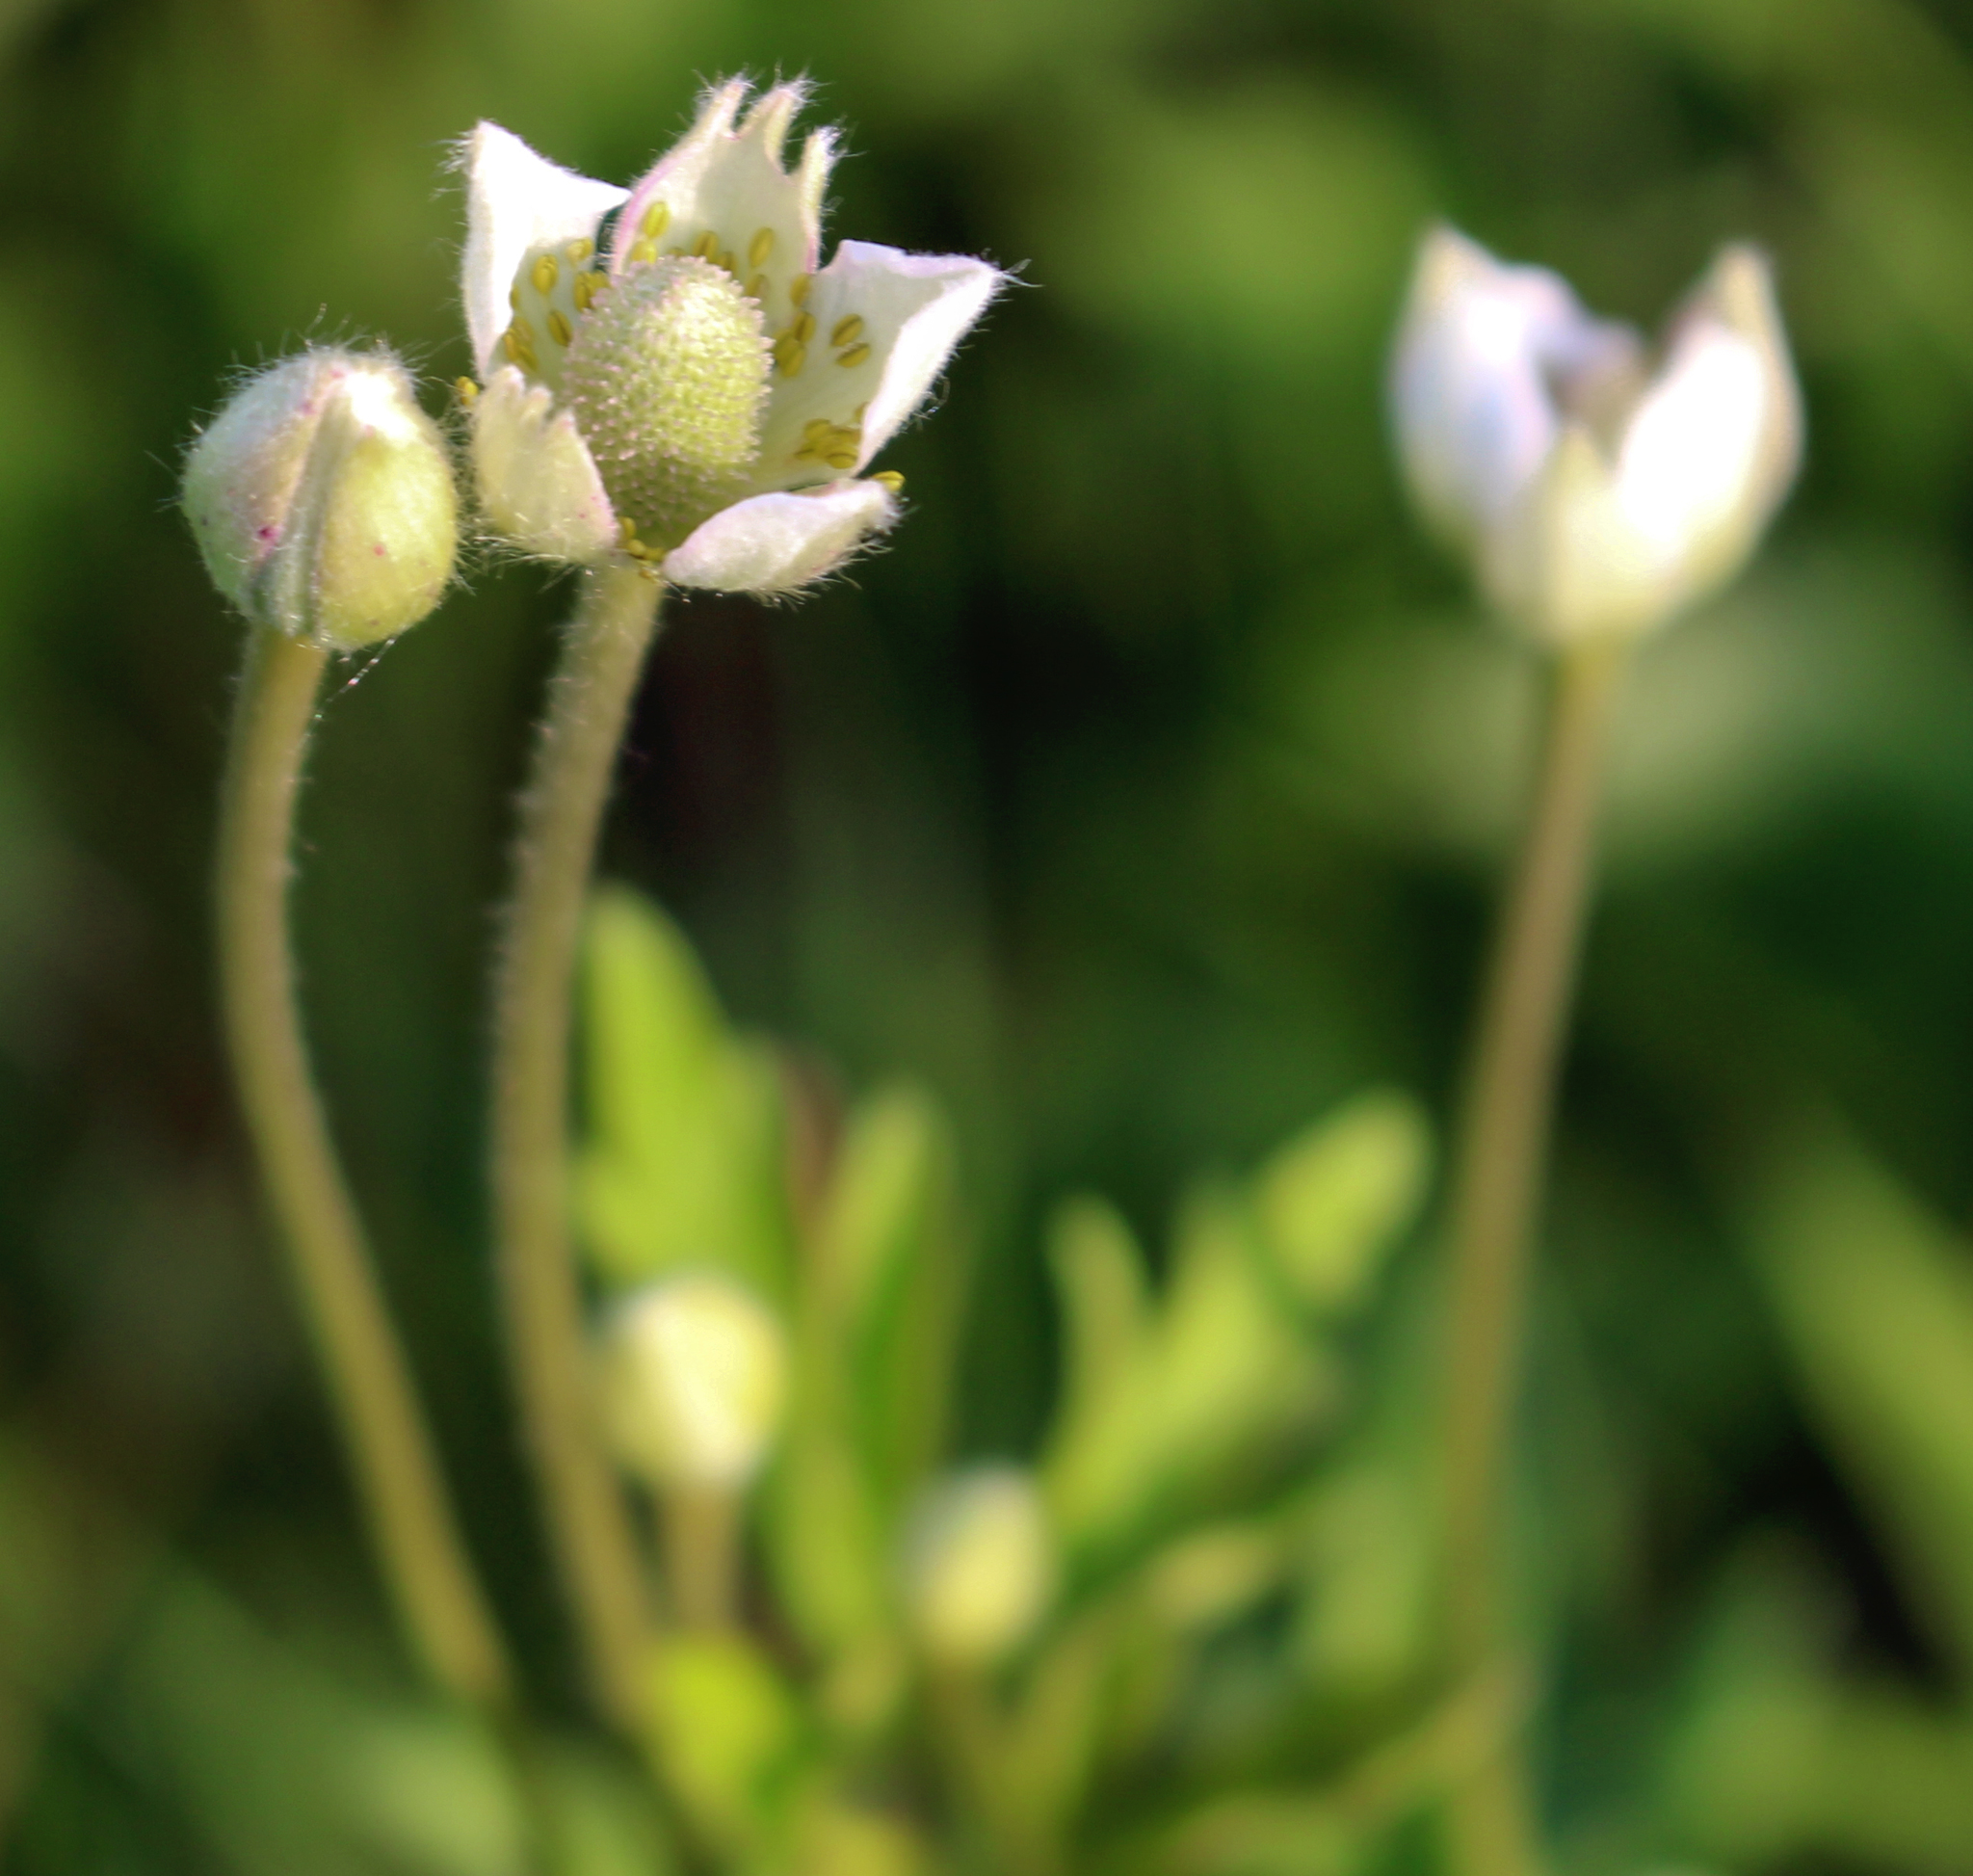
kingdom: Plantae
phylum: Tracheophyta
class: Magnoliopsida
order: Ranunculales
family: Ranunculaceae
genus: Anemone
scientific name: Anemone cylindrica
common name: Candle anemone
